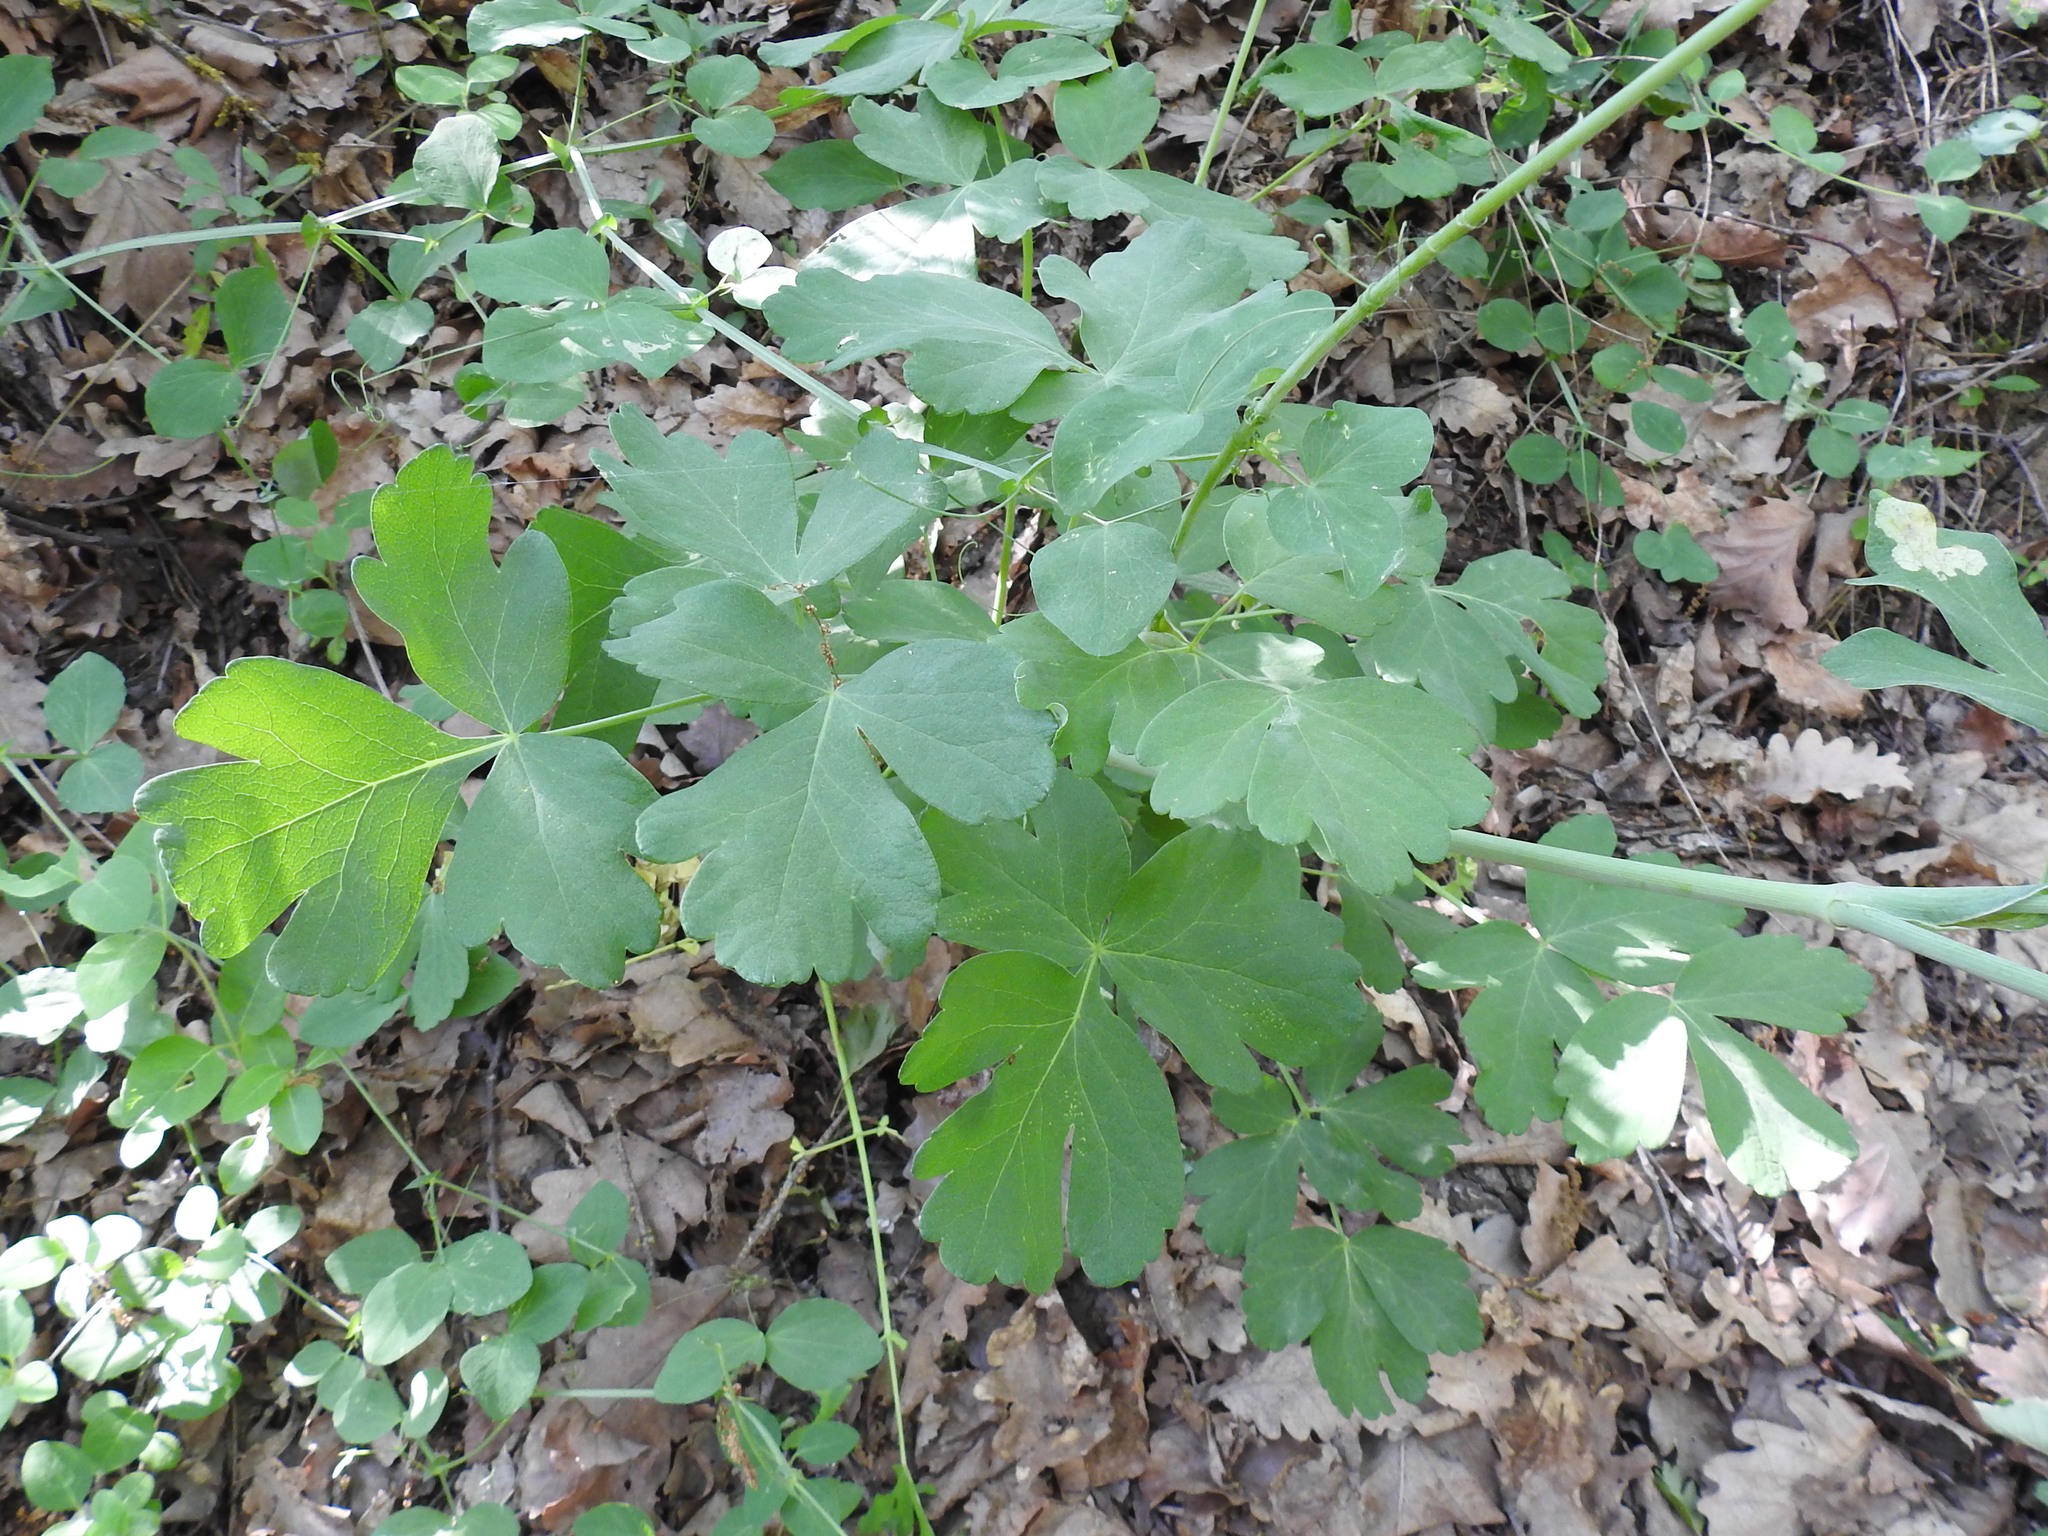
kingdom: Plantae
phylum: Tracheophyta
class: Magnoliopsida
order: Apiales
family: Apiaceae
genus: Laser
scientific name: Laser trilobum
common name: Laser
